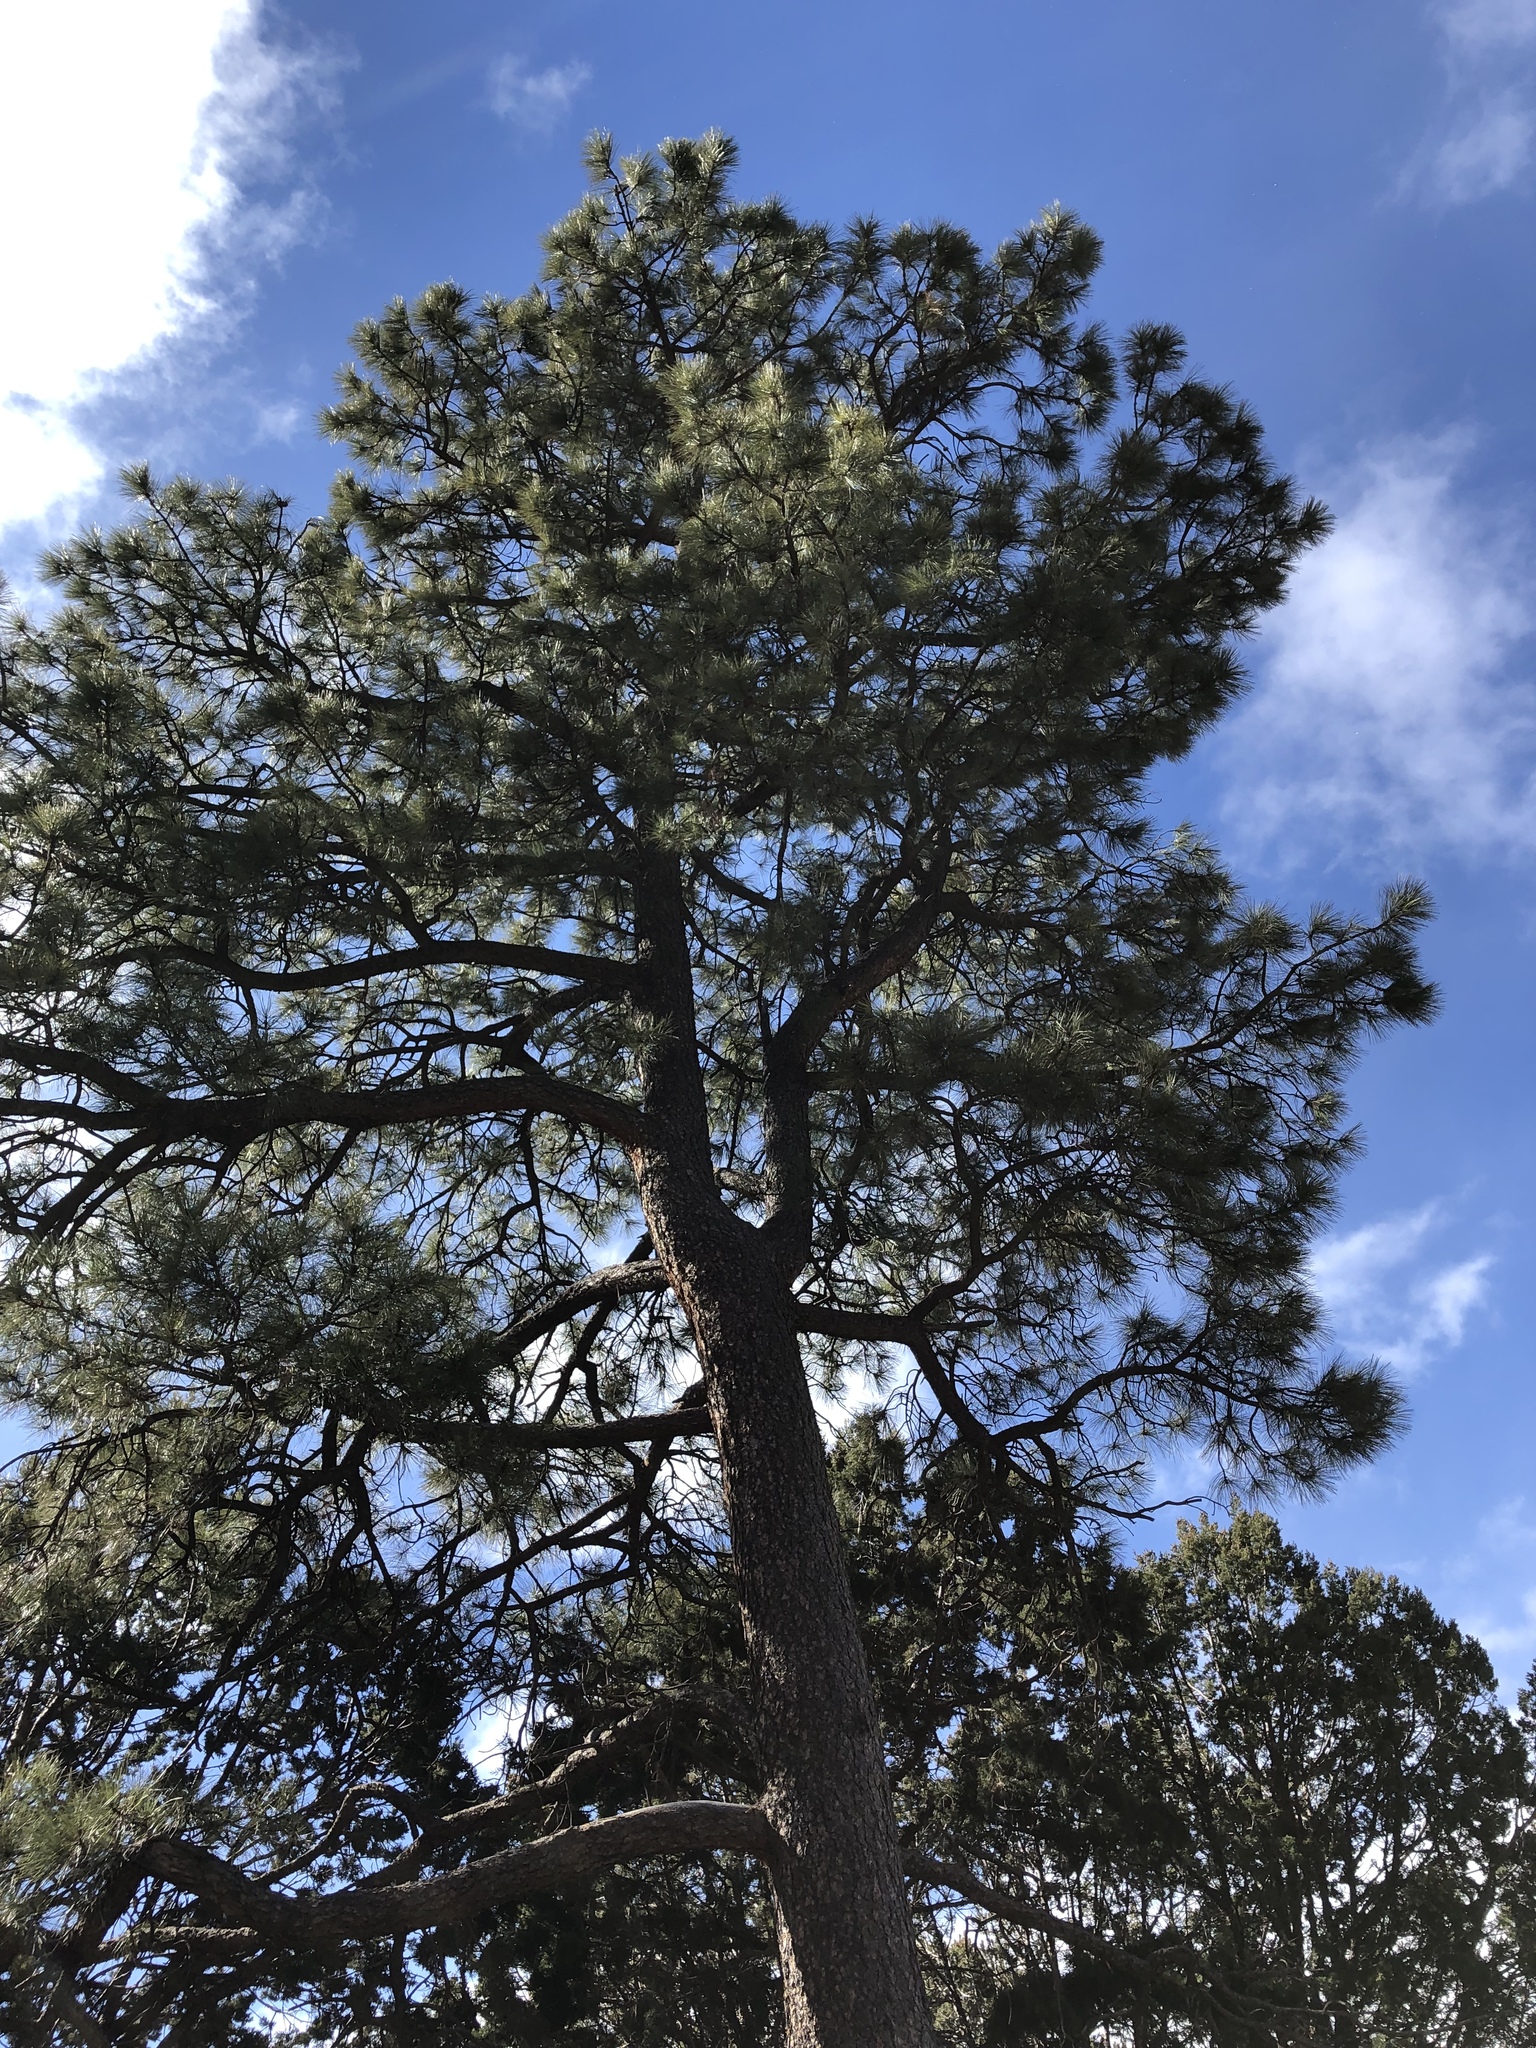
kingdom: Plantae
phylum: Tracheophyta
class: Pinopsida
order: Pinales
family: Pinaceae
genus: Pinus
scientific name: Pinus ponderosa
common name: Western yellow-pine
